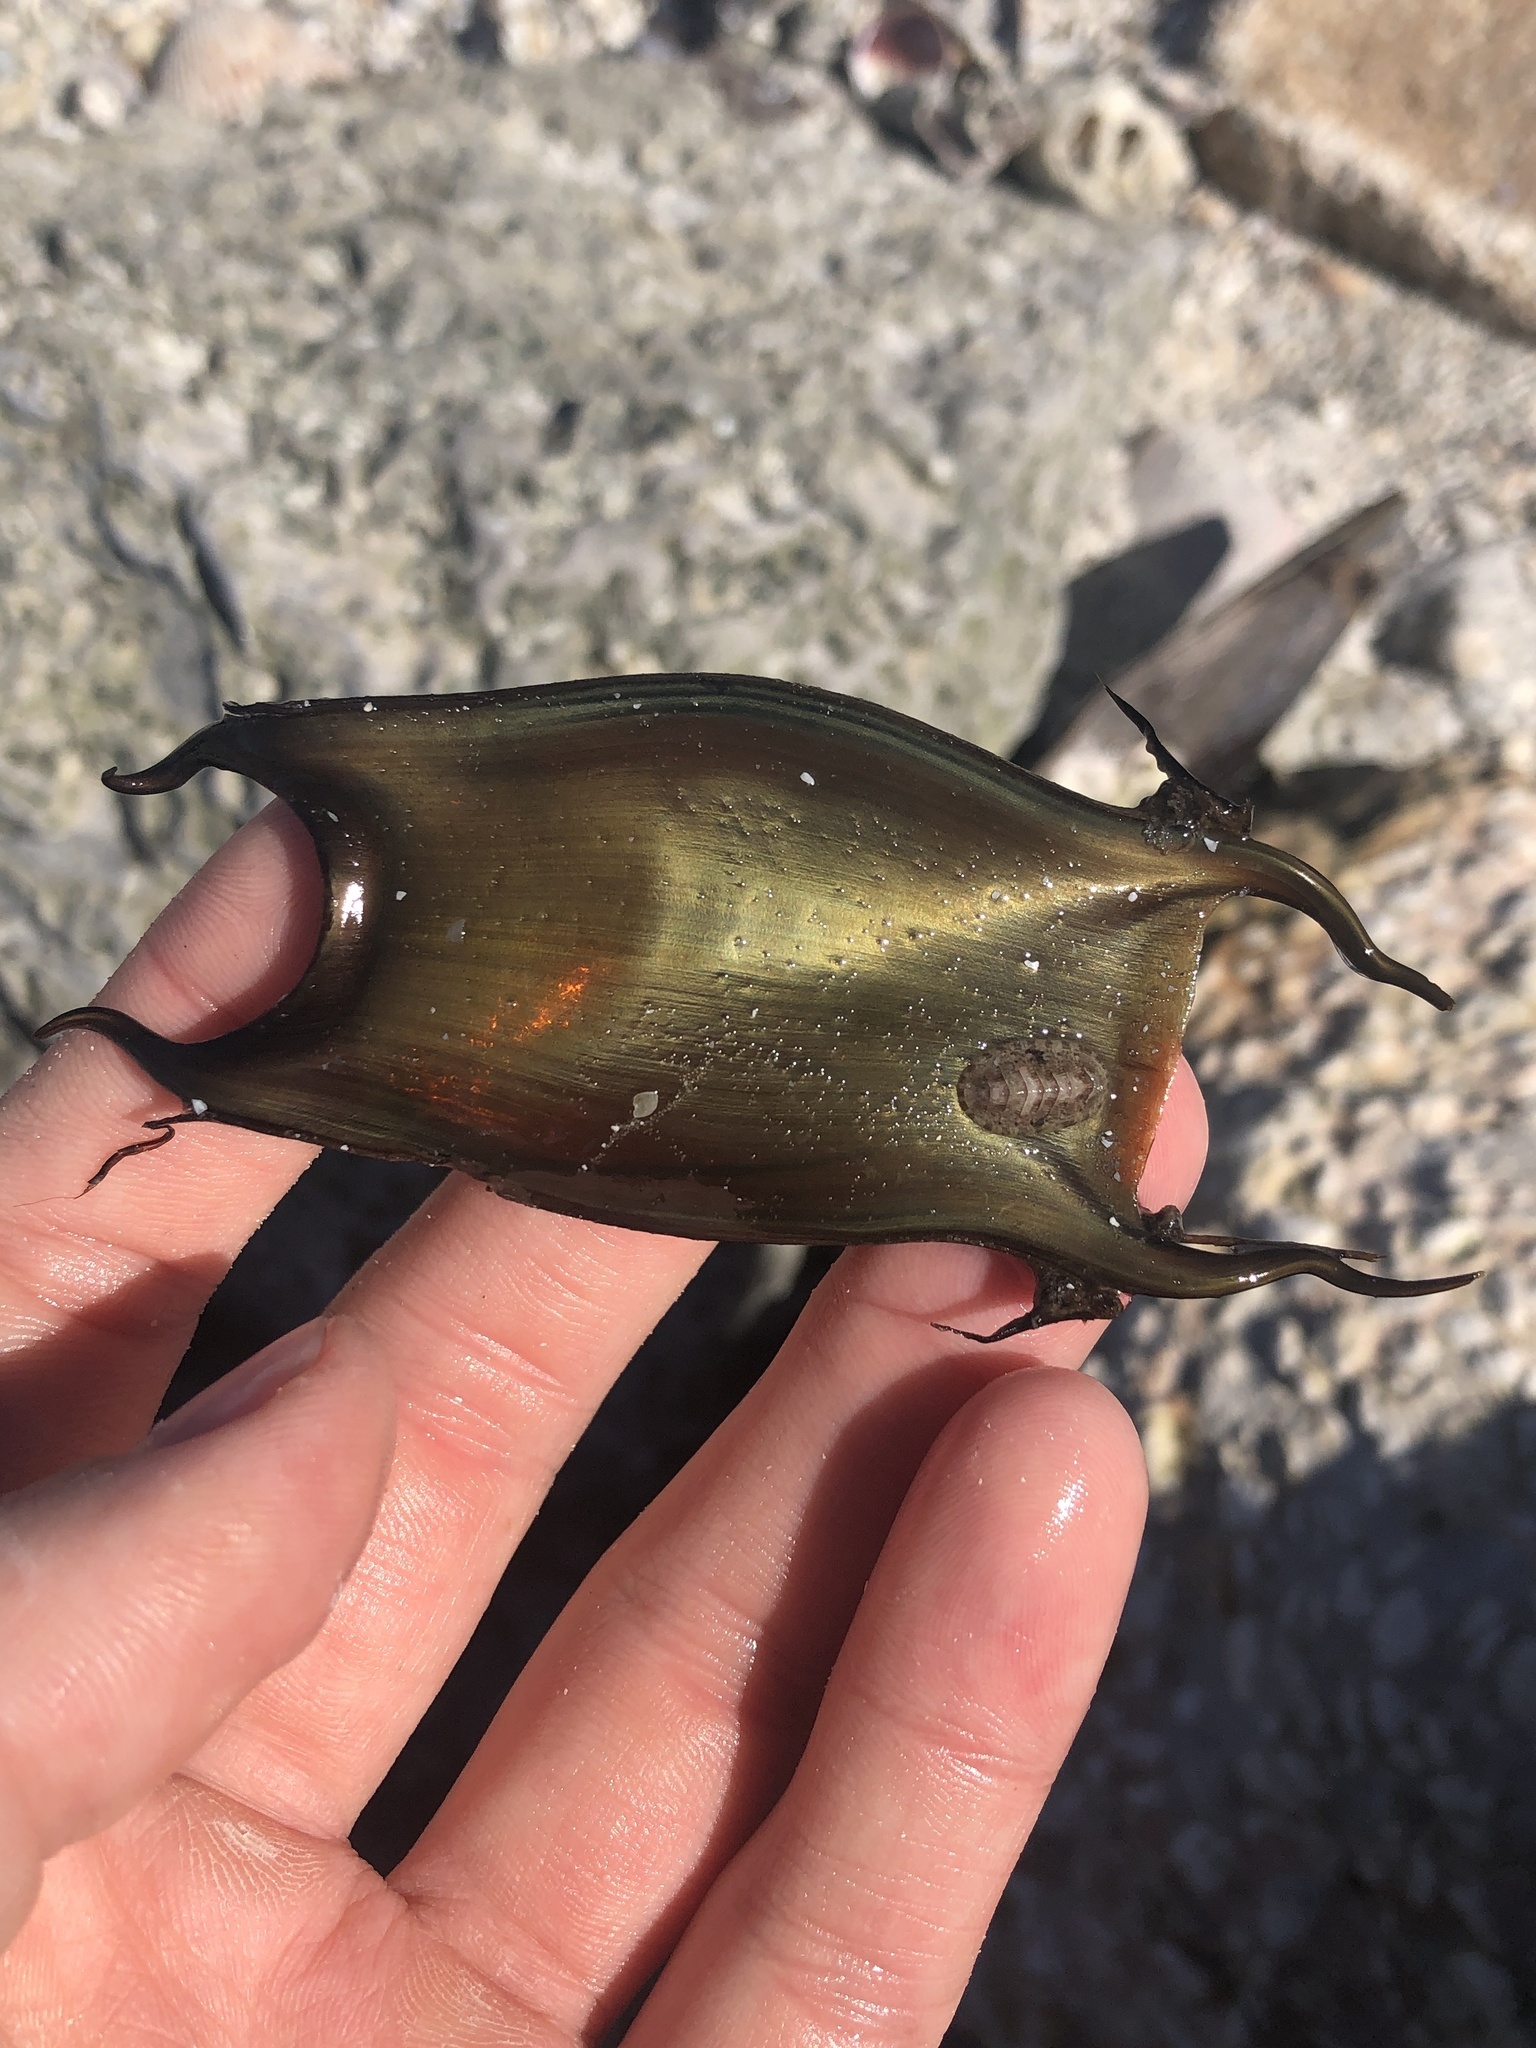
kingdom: Animalia
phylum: Mollusca
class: Polyplacophora
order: Chitonida
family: Chaetopleuridae
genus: Chaetopleura
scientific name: Chaetopleura apiculata
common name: Bee chiton
